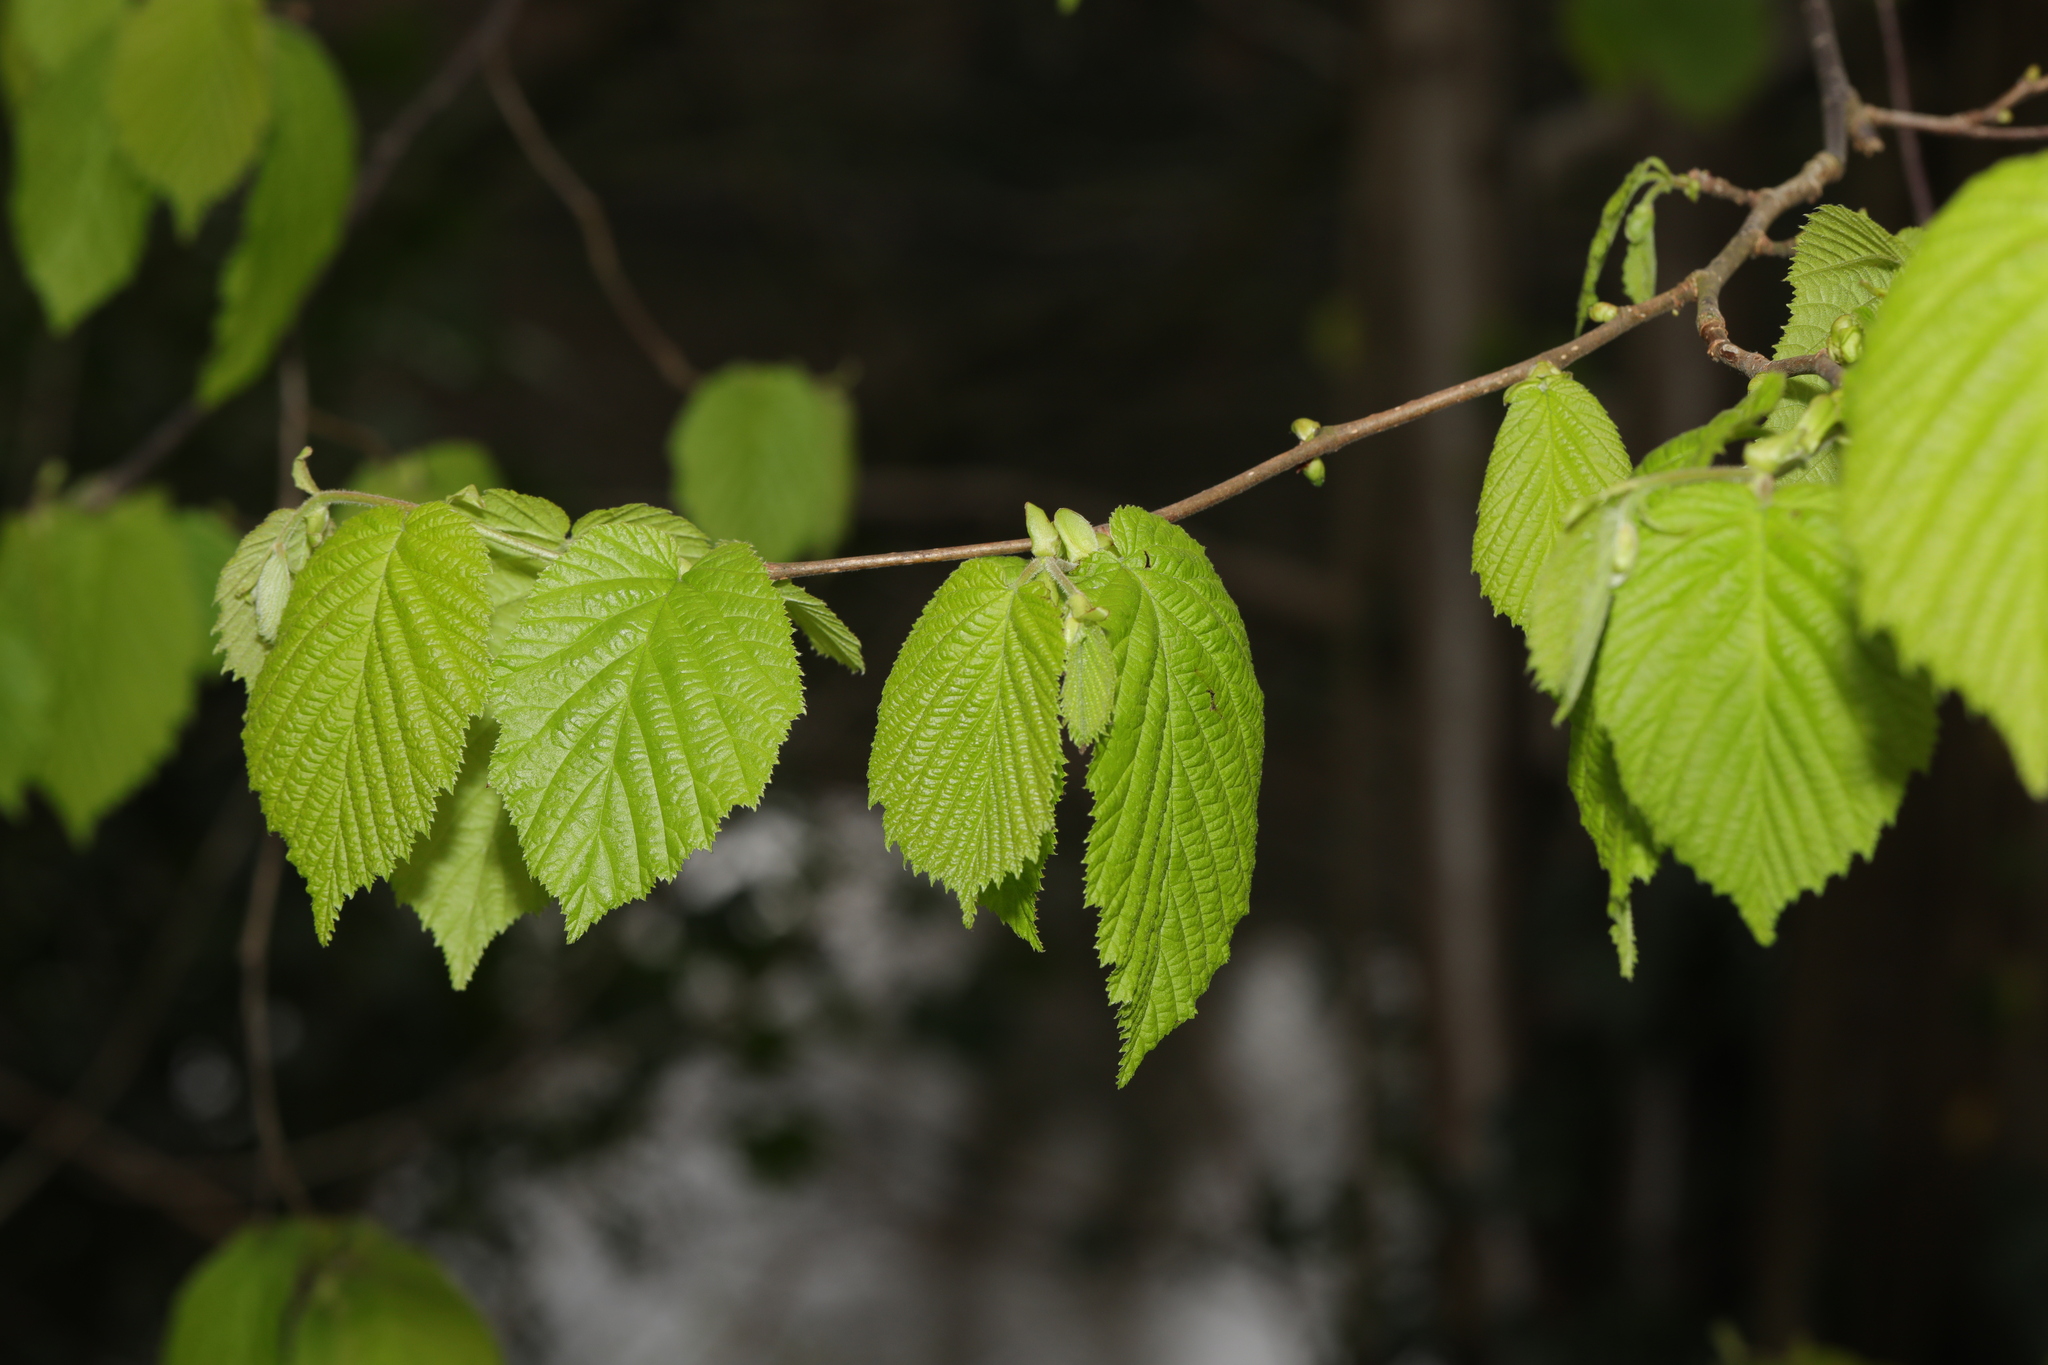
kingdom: Plantae
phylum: Tracheophyta
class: Magnoliopsida
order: Fagales
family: Betulaceae
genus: Corylus
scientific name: Corylus avellana
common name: European hazel
